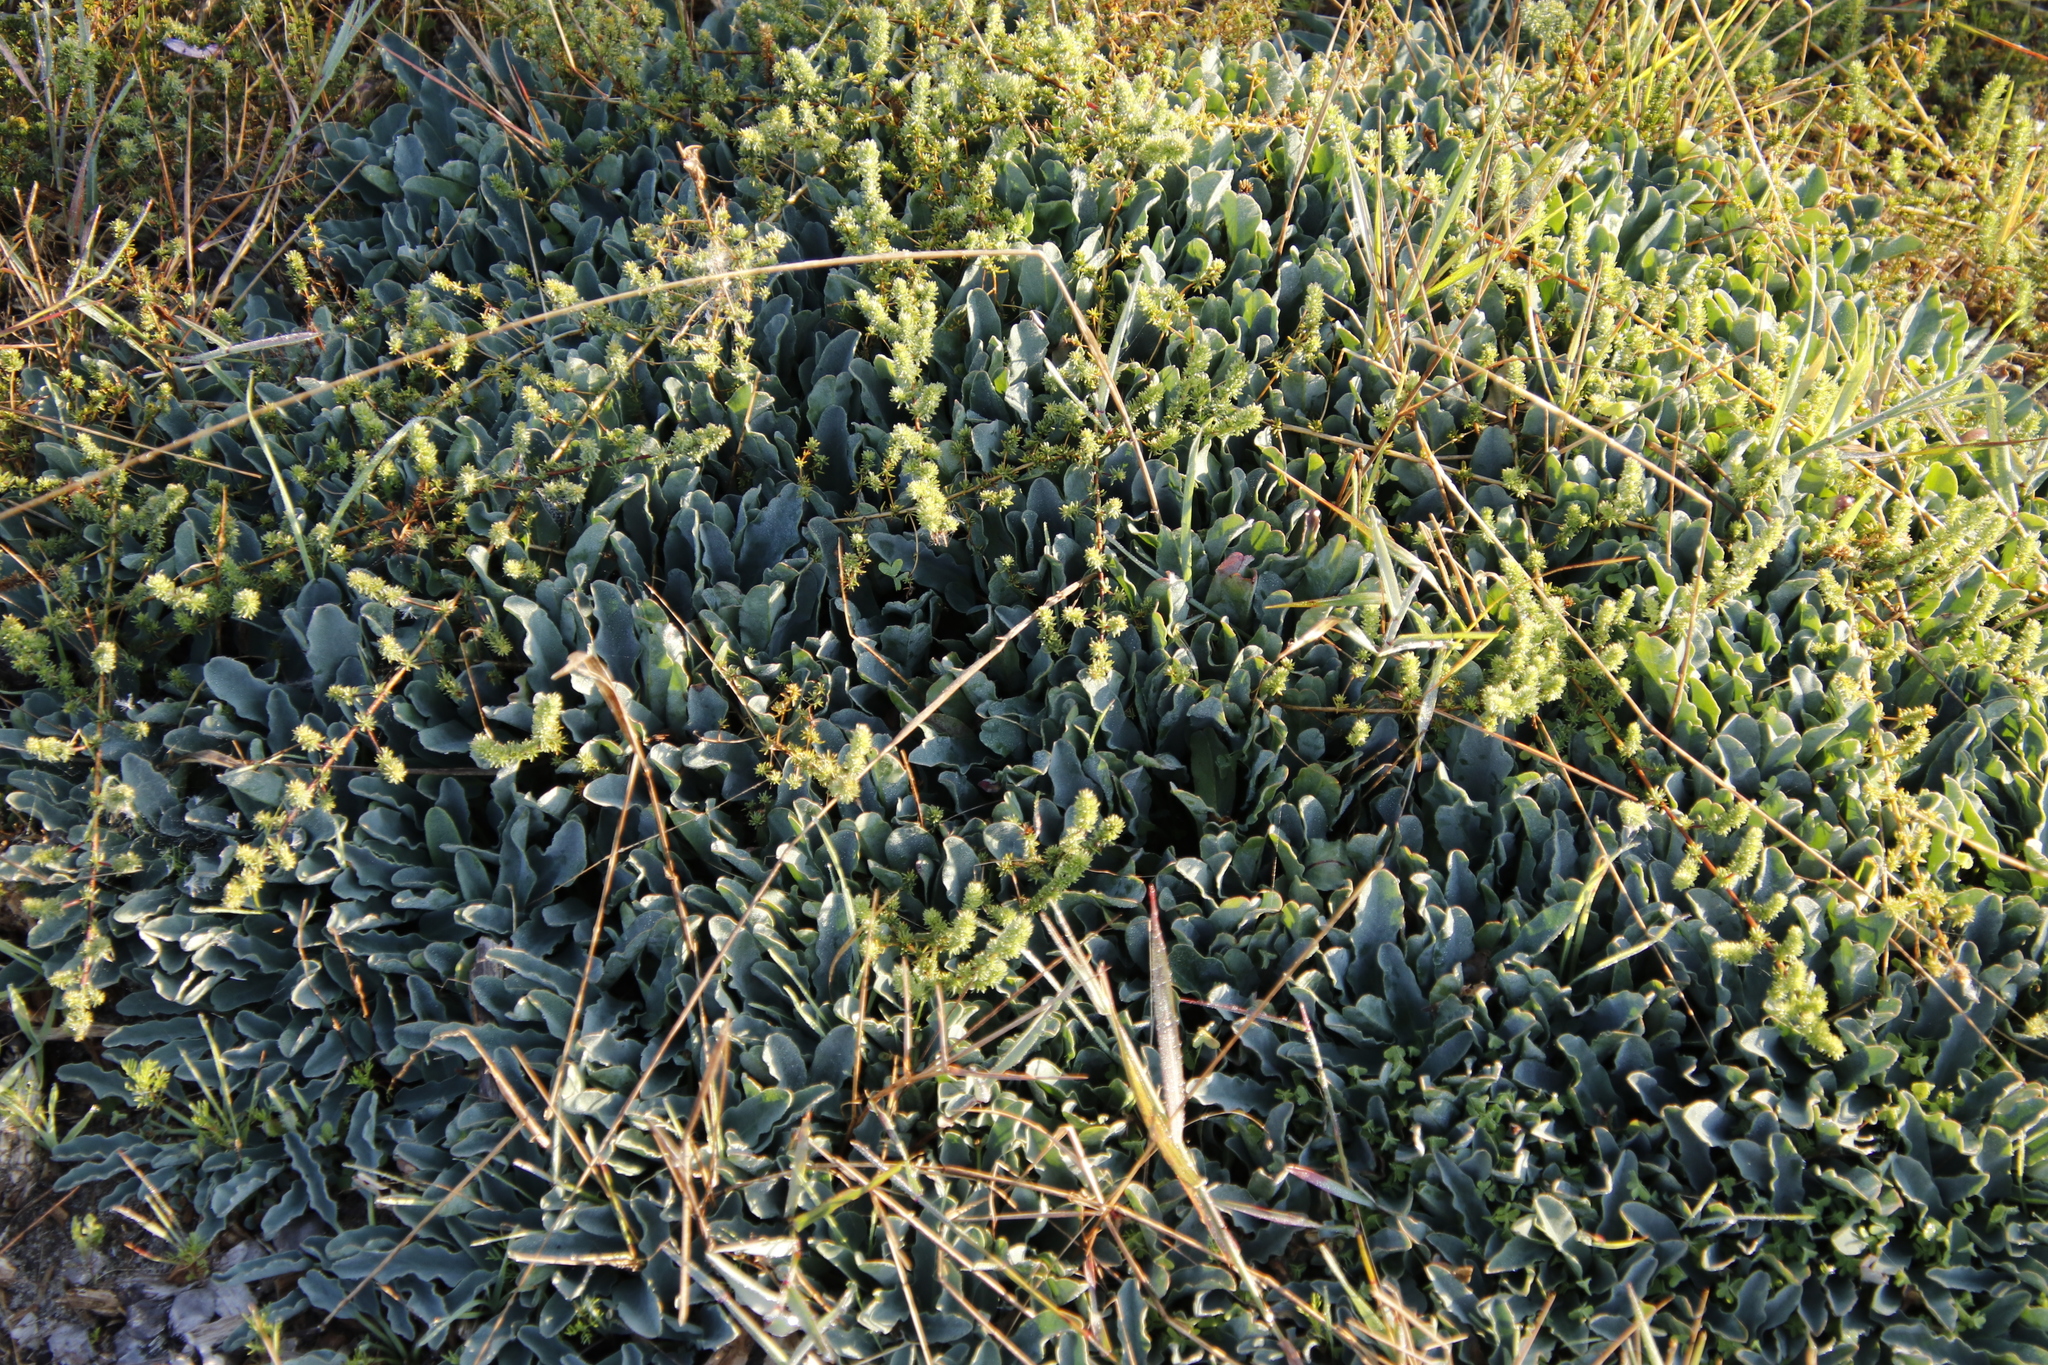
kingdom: Plantae
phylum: Tracheophyta
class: Magnoliopsida
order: Malpighiales
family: Euphorbiaceae
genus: Euphorbia
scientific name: Euphorbia tuberosa
